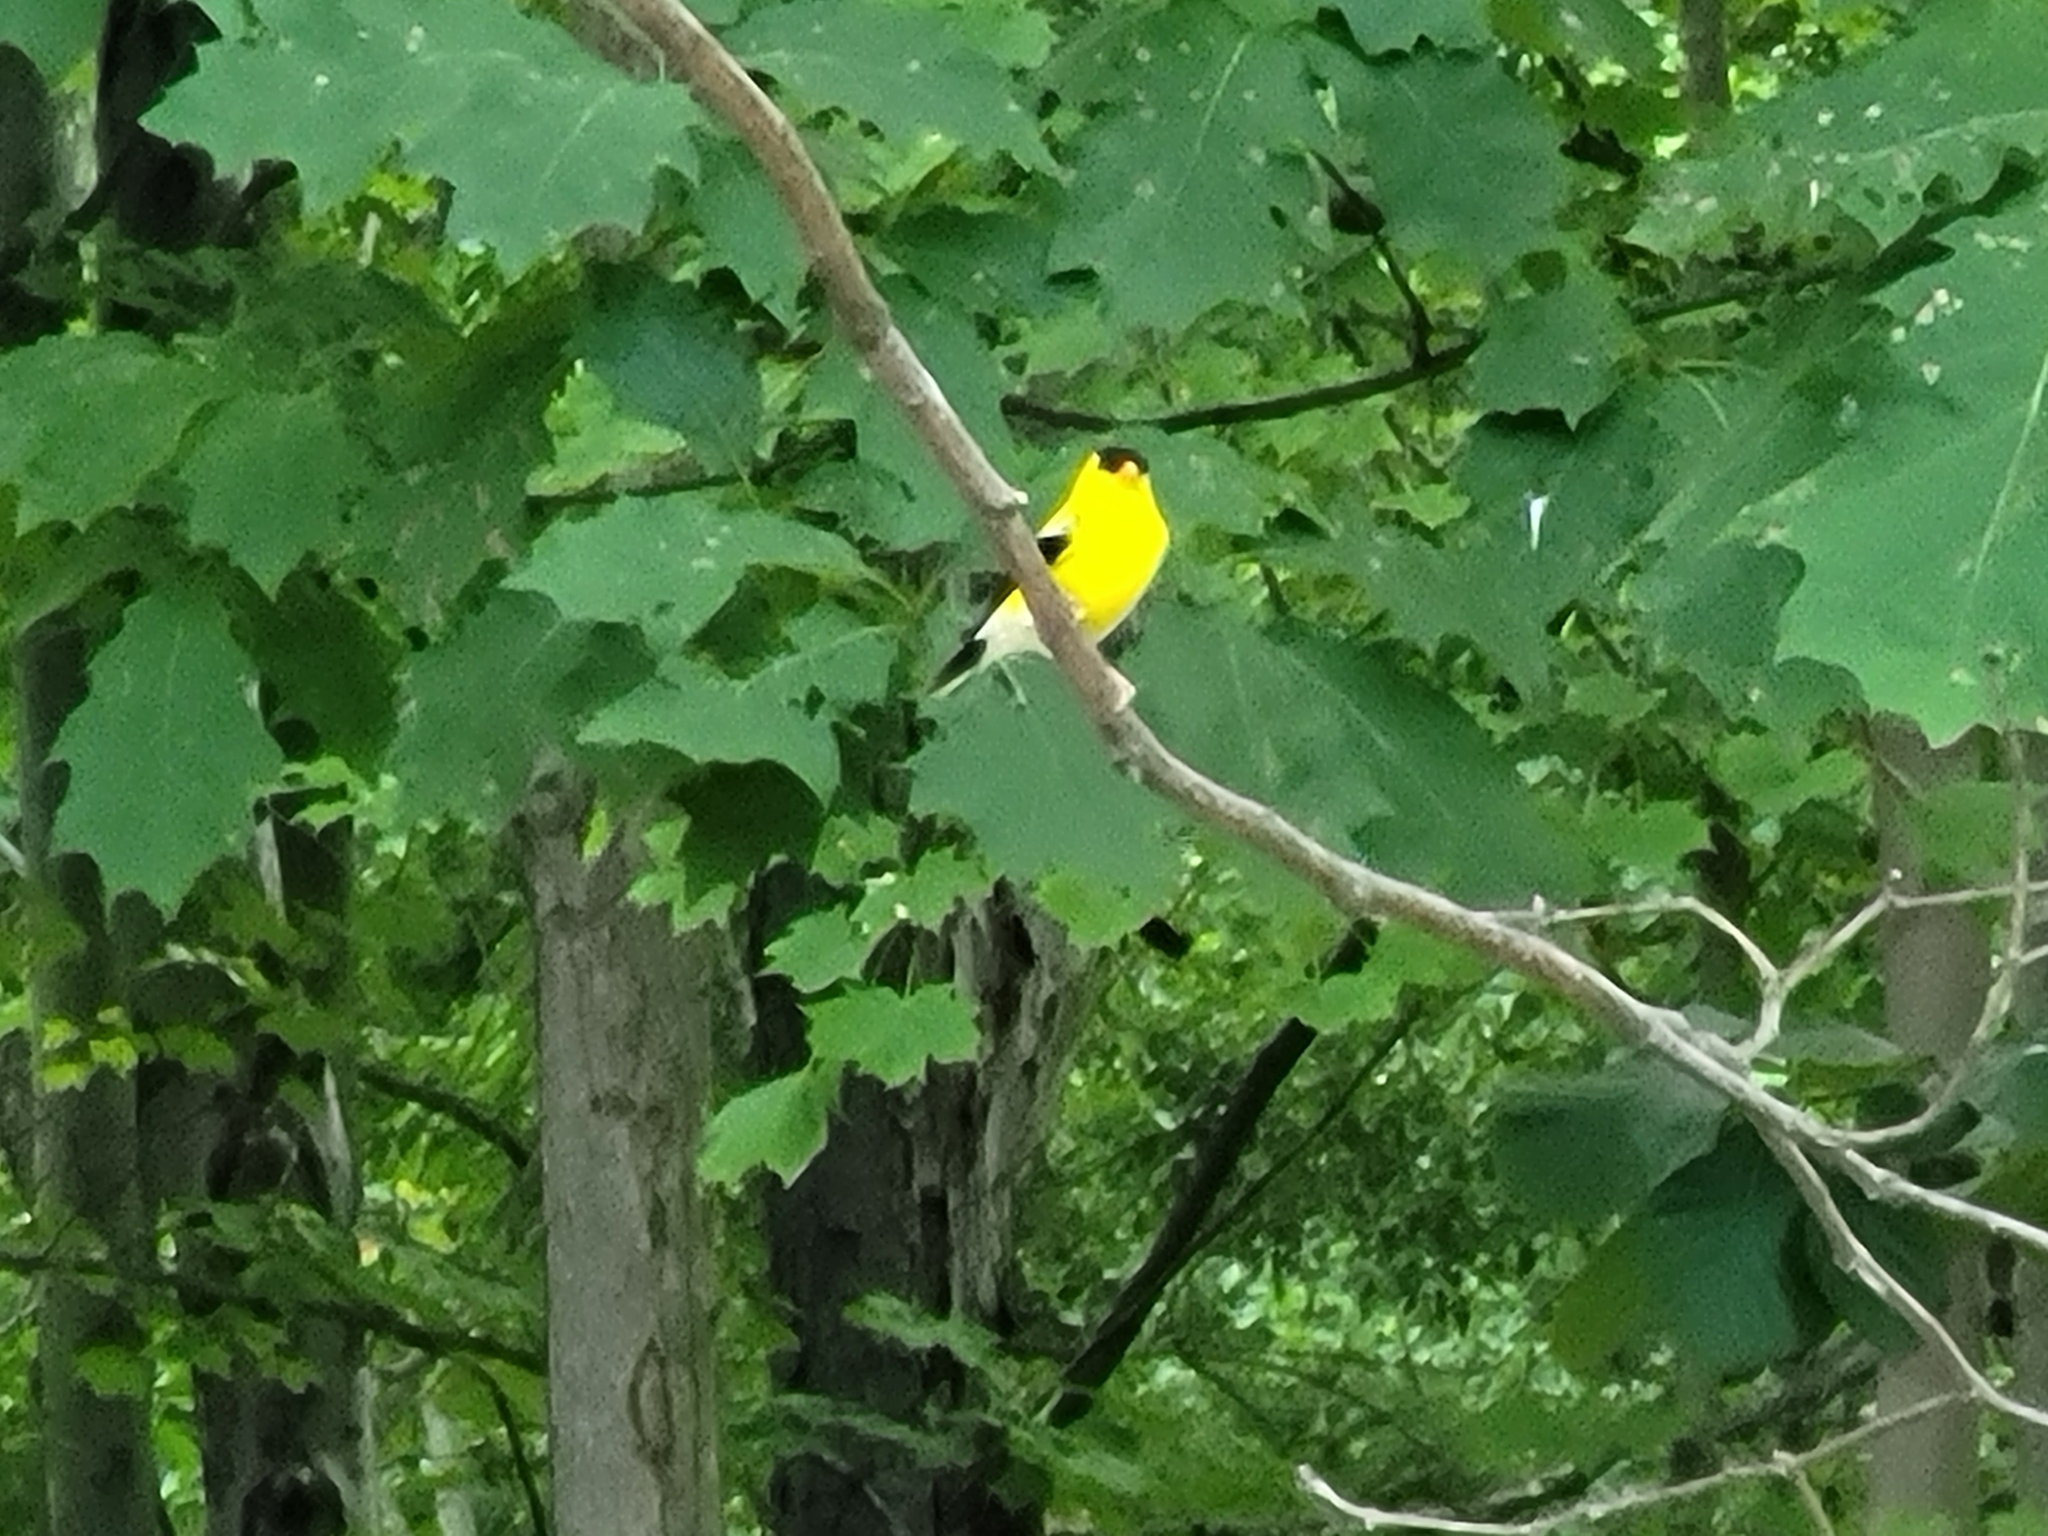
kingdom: Animalia
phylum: Chordata
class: Aves
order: Passeriformes
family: Fringillidae
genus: Spinus
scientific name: Spinus tristis
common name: American goldfinch
